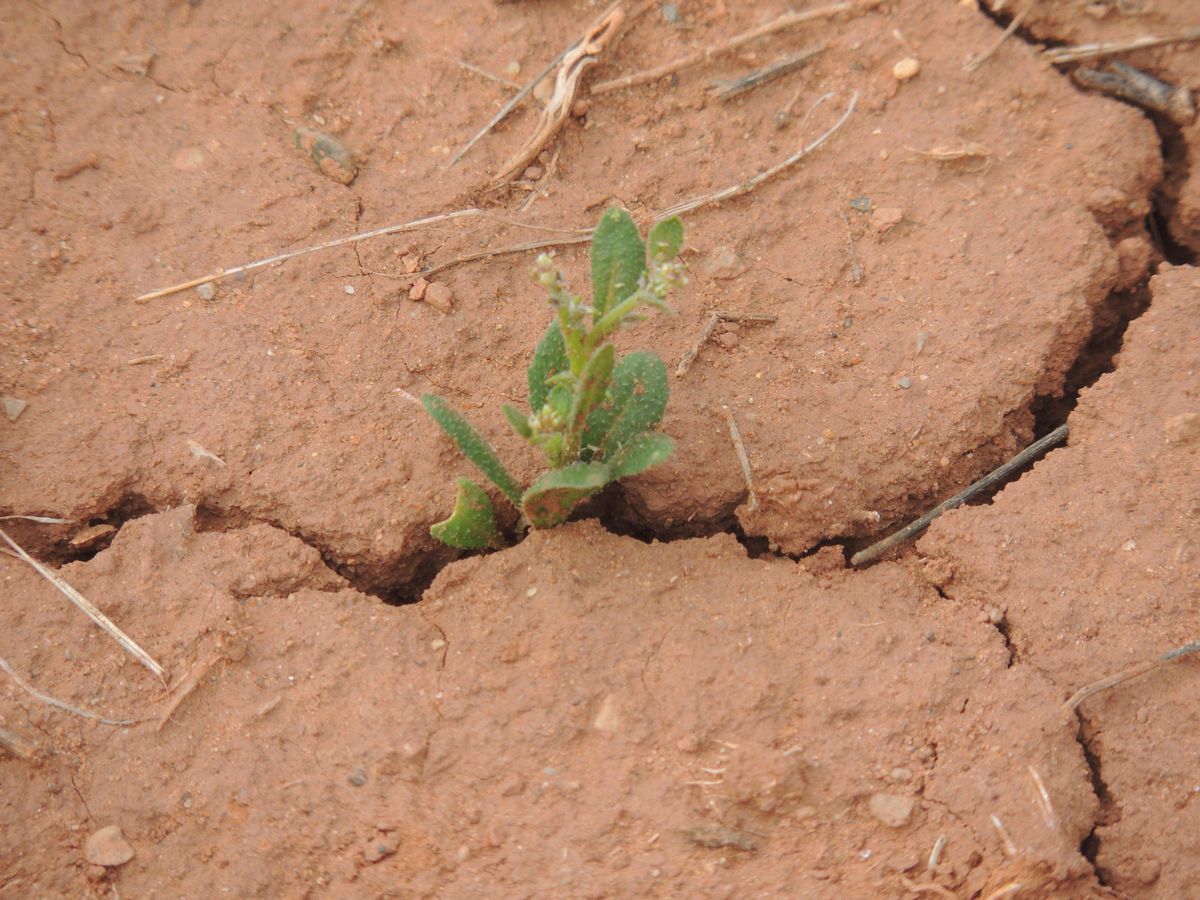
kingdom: Plantae
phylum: Tracheophyta
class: Magnoliopsida
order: Brassicales
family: Brassicaceae
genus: Euclidium
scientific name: Euclidium syriacum
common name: Syrian mustard
